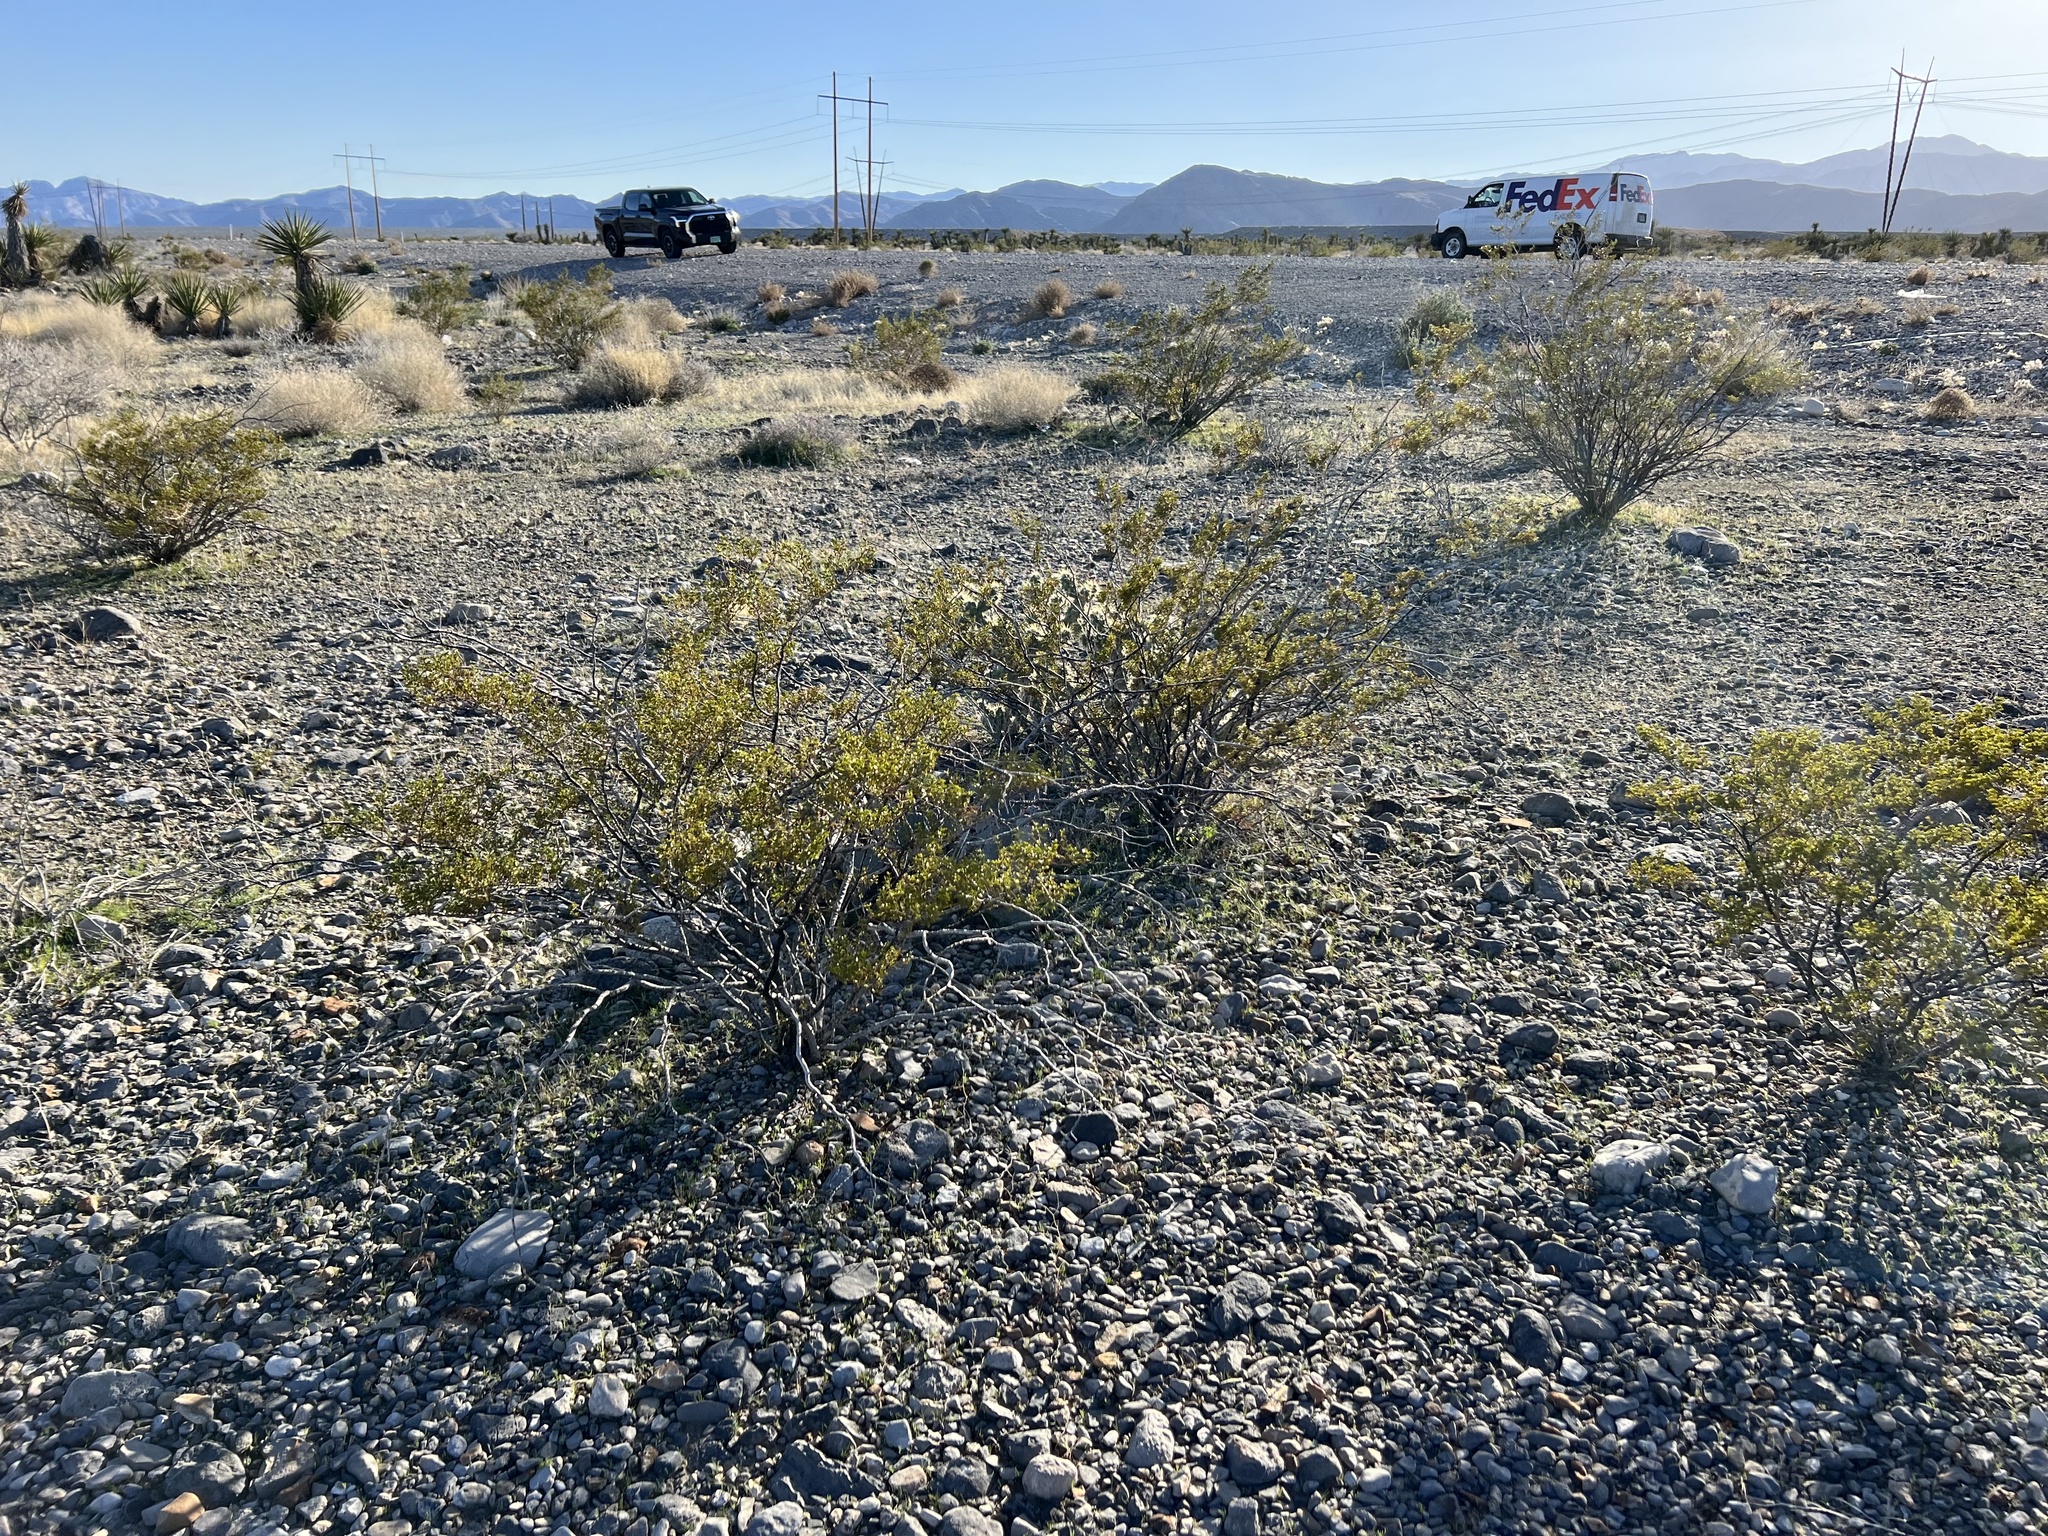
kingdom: Plantae
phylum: Tracheophyta
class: Magnoliopsida
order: Zygophyllales
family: Zygophyllaceae
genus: Larrea
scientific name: Larrea tridentata
